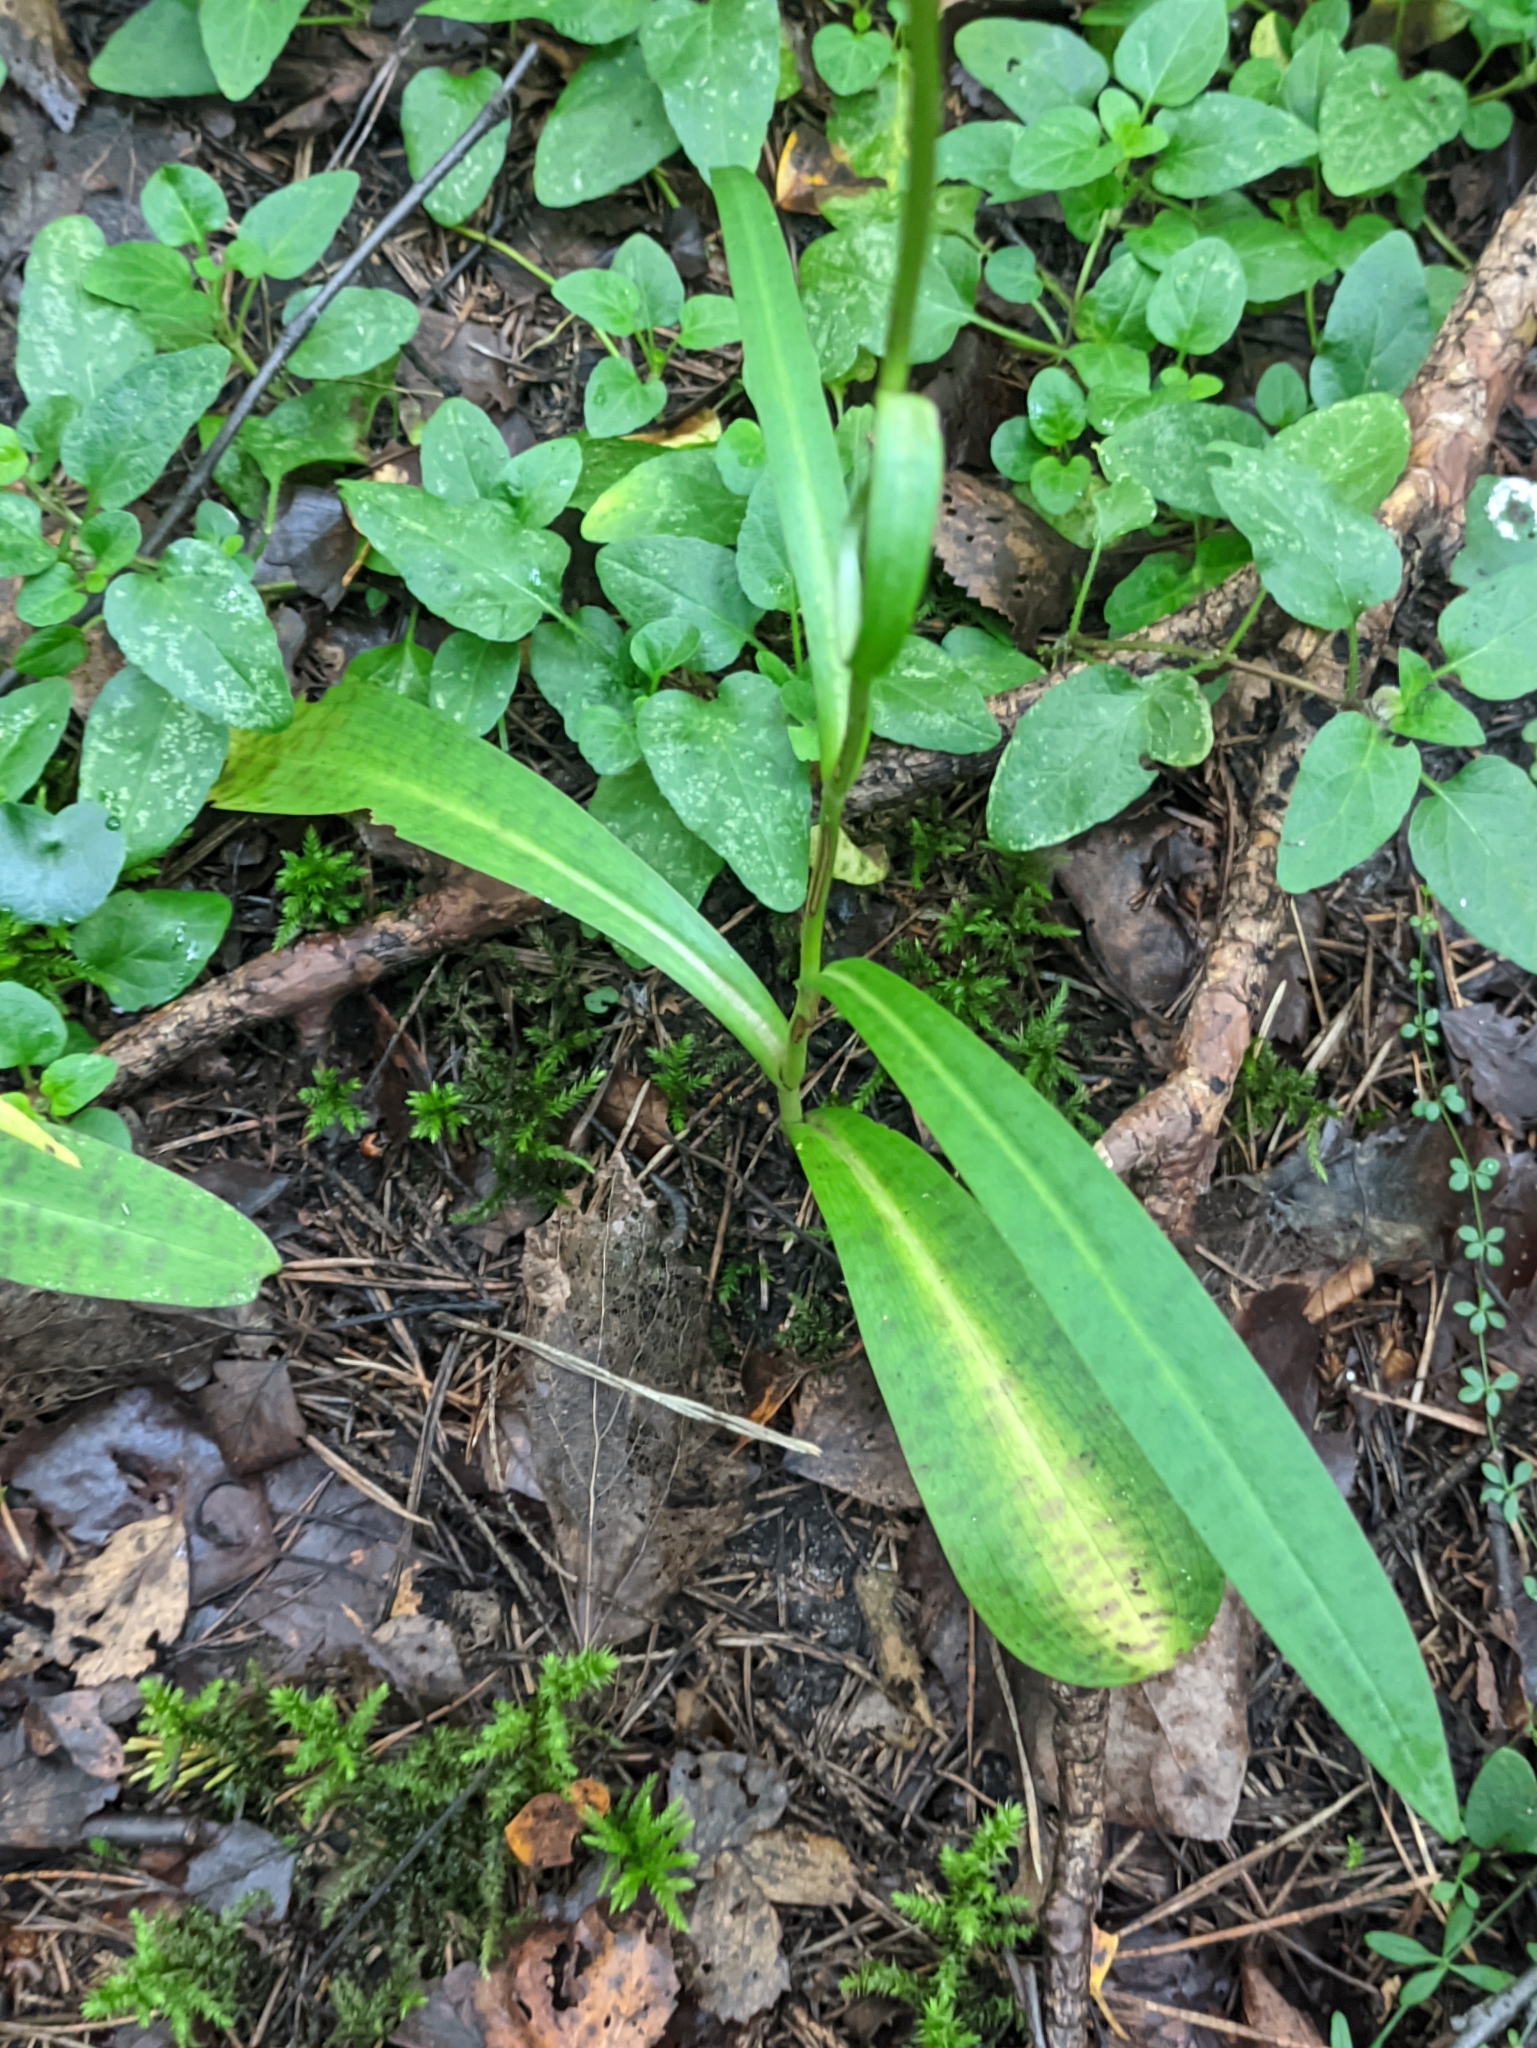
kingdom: Plantae
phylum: Tracheophyta
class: Liliopsida
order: Asparagales
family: Orchidaceae
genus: Dactylorhiza
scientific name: Dactylorhiza maculata
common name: Heath spotted-orchid
